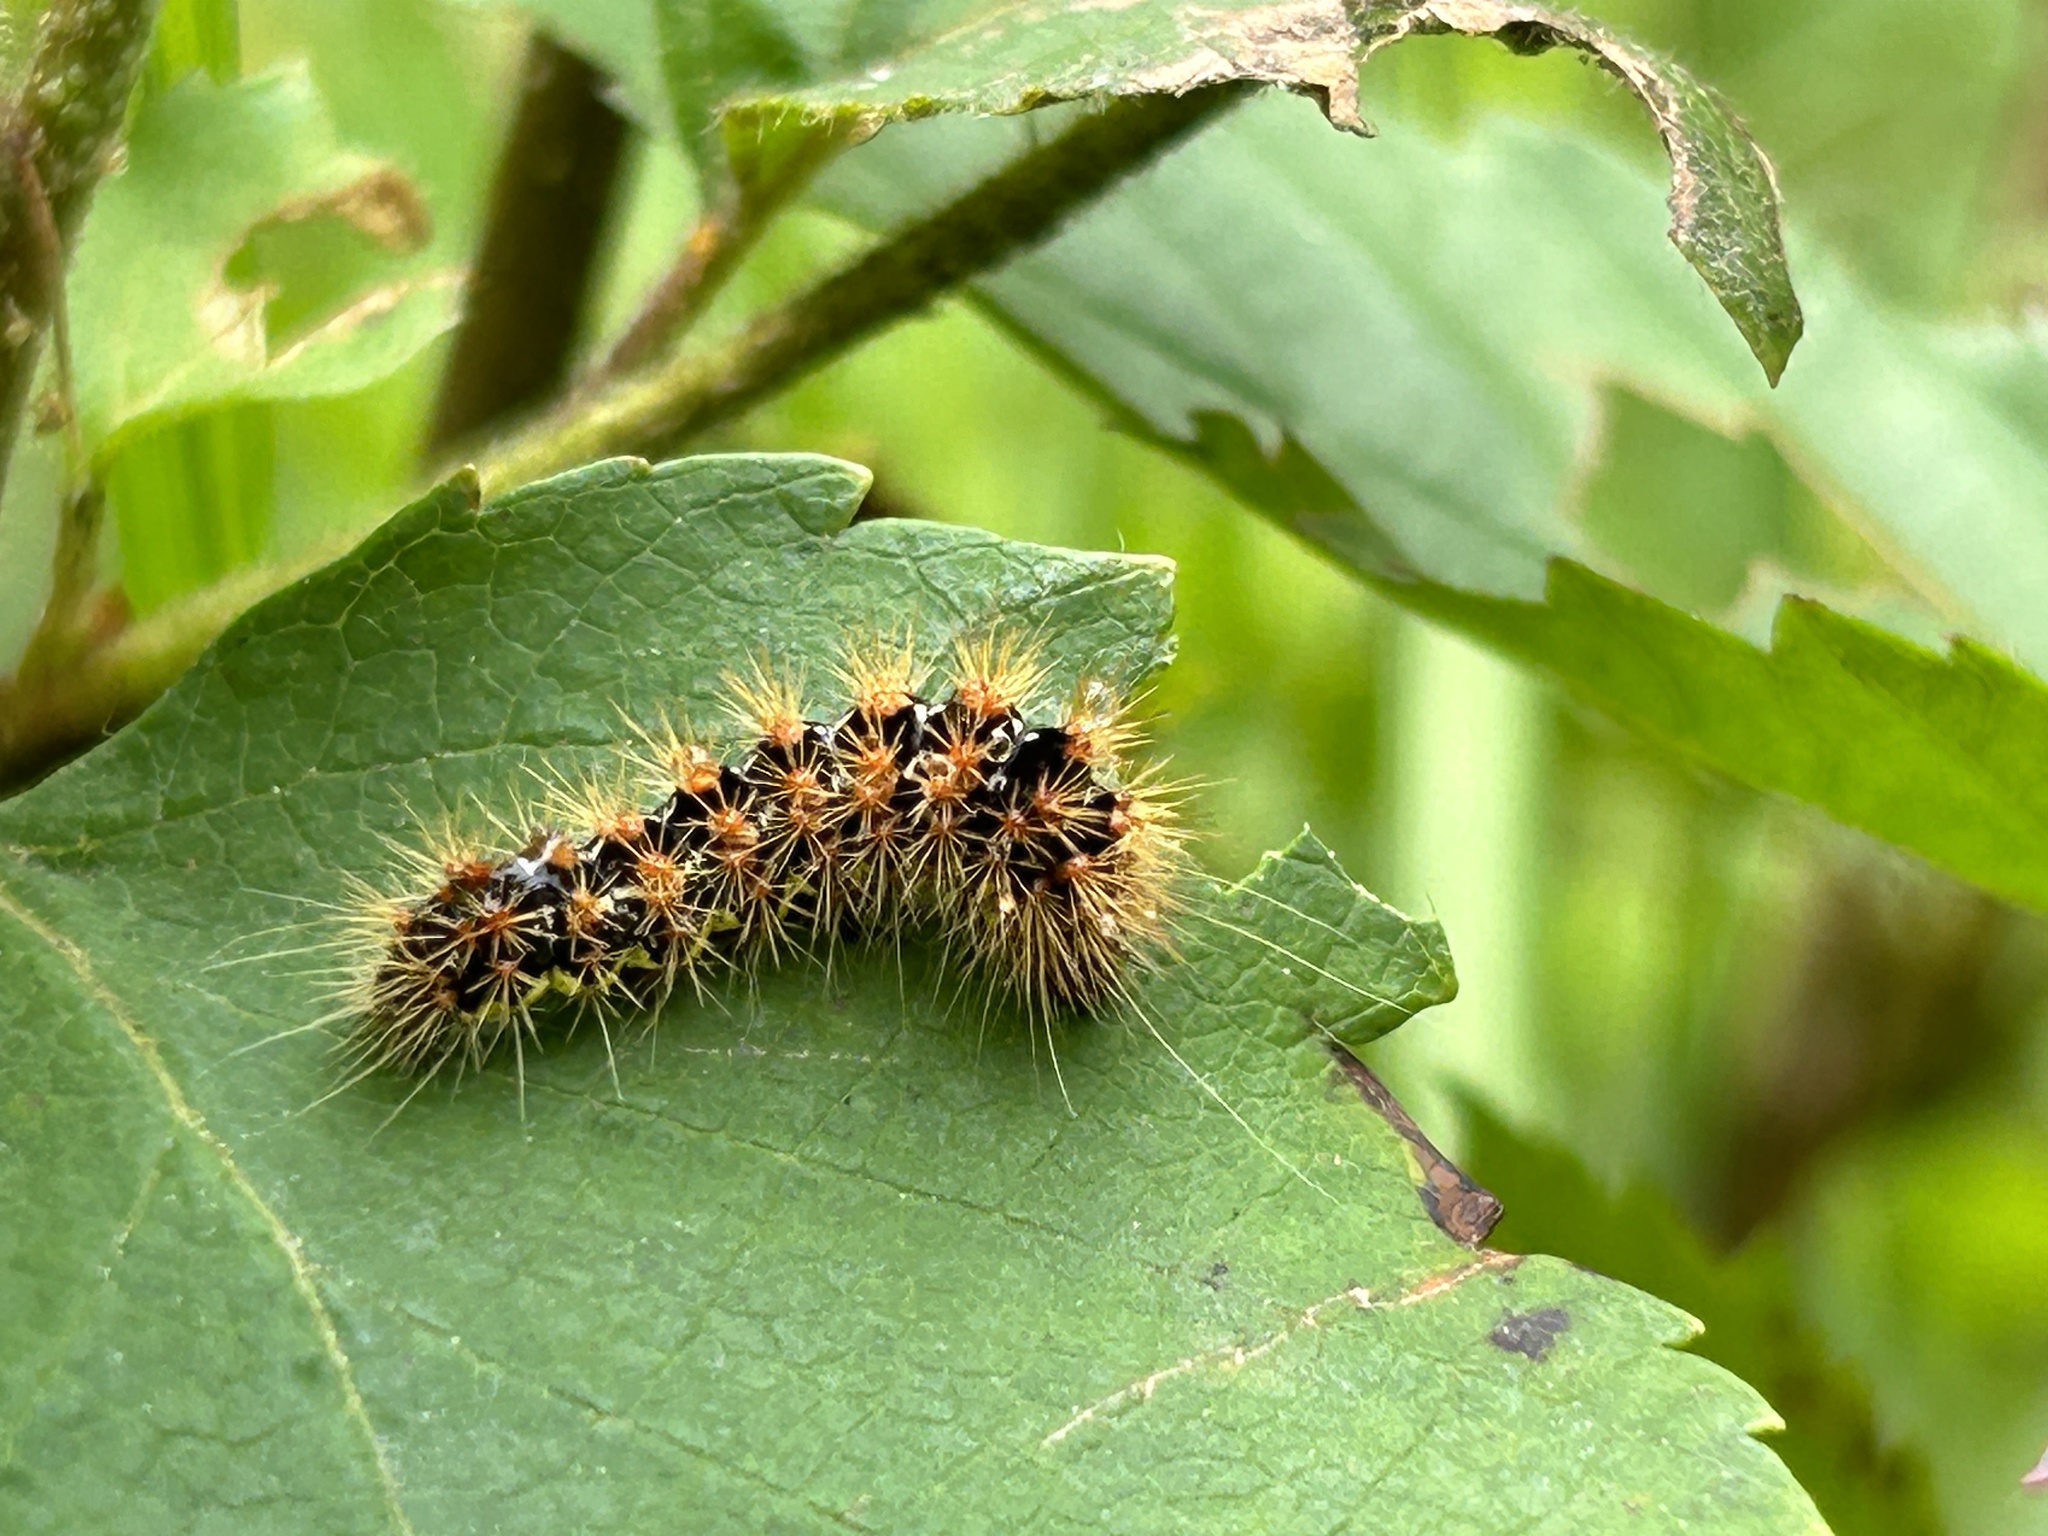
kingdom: Animalia
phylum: Arthropoda
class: Insecta
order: Lepidoptera
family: Noctuidae
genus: Acronicta
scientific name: Acronicta oblinita
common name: Smeared dagger
